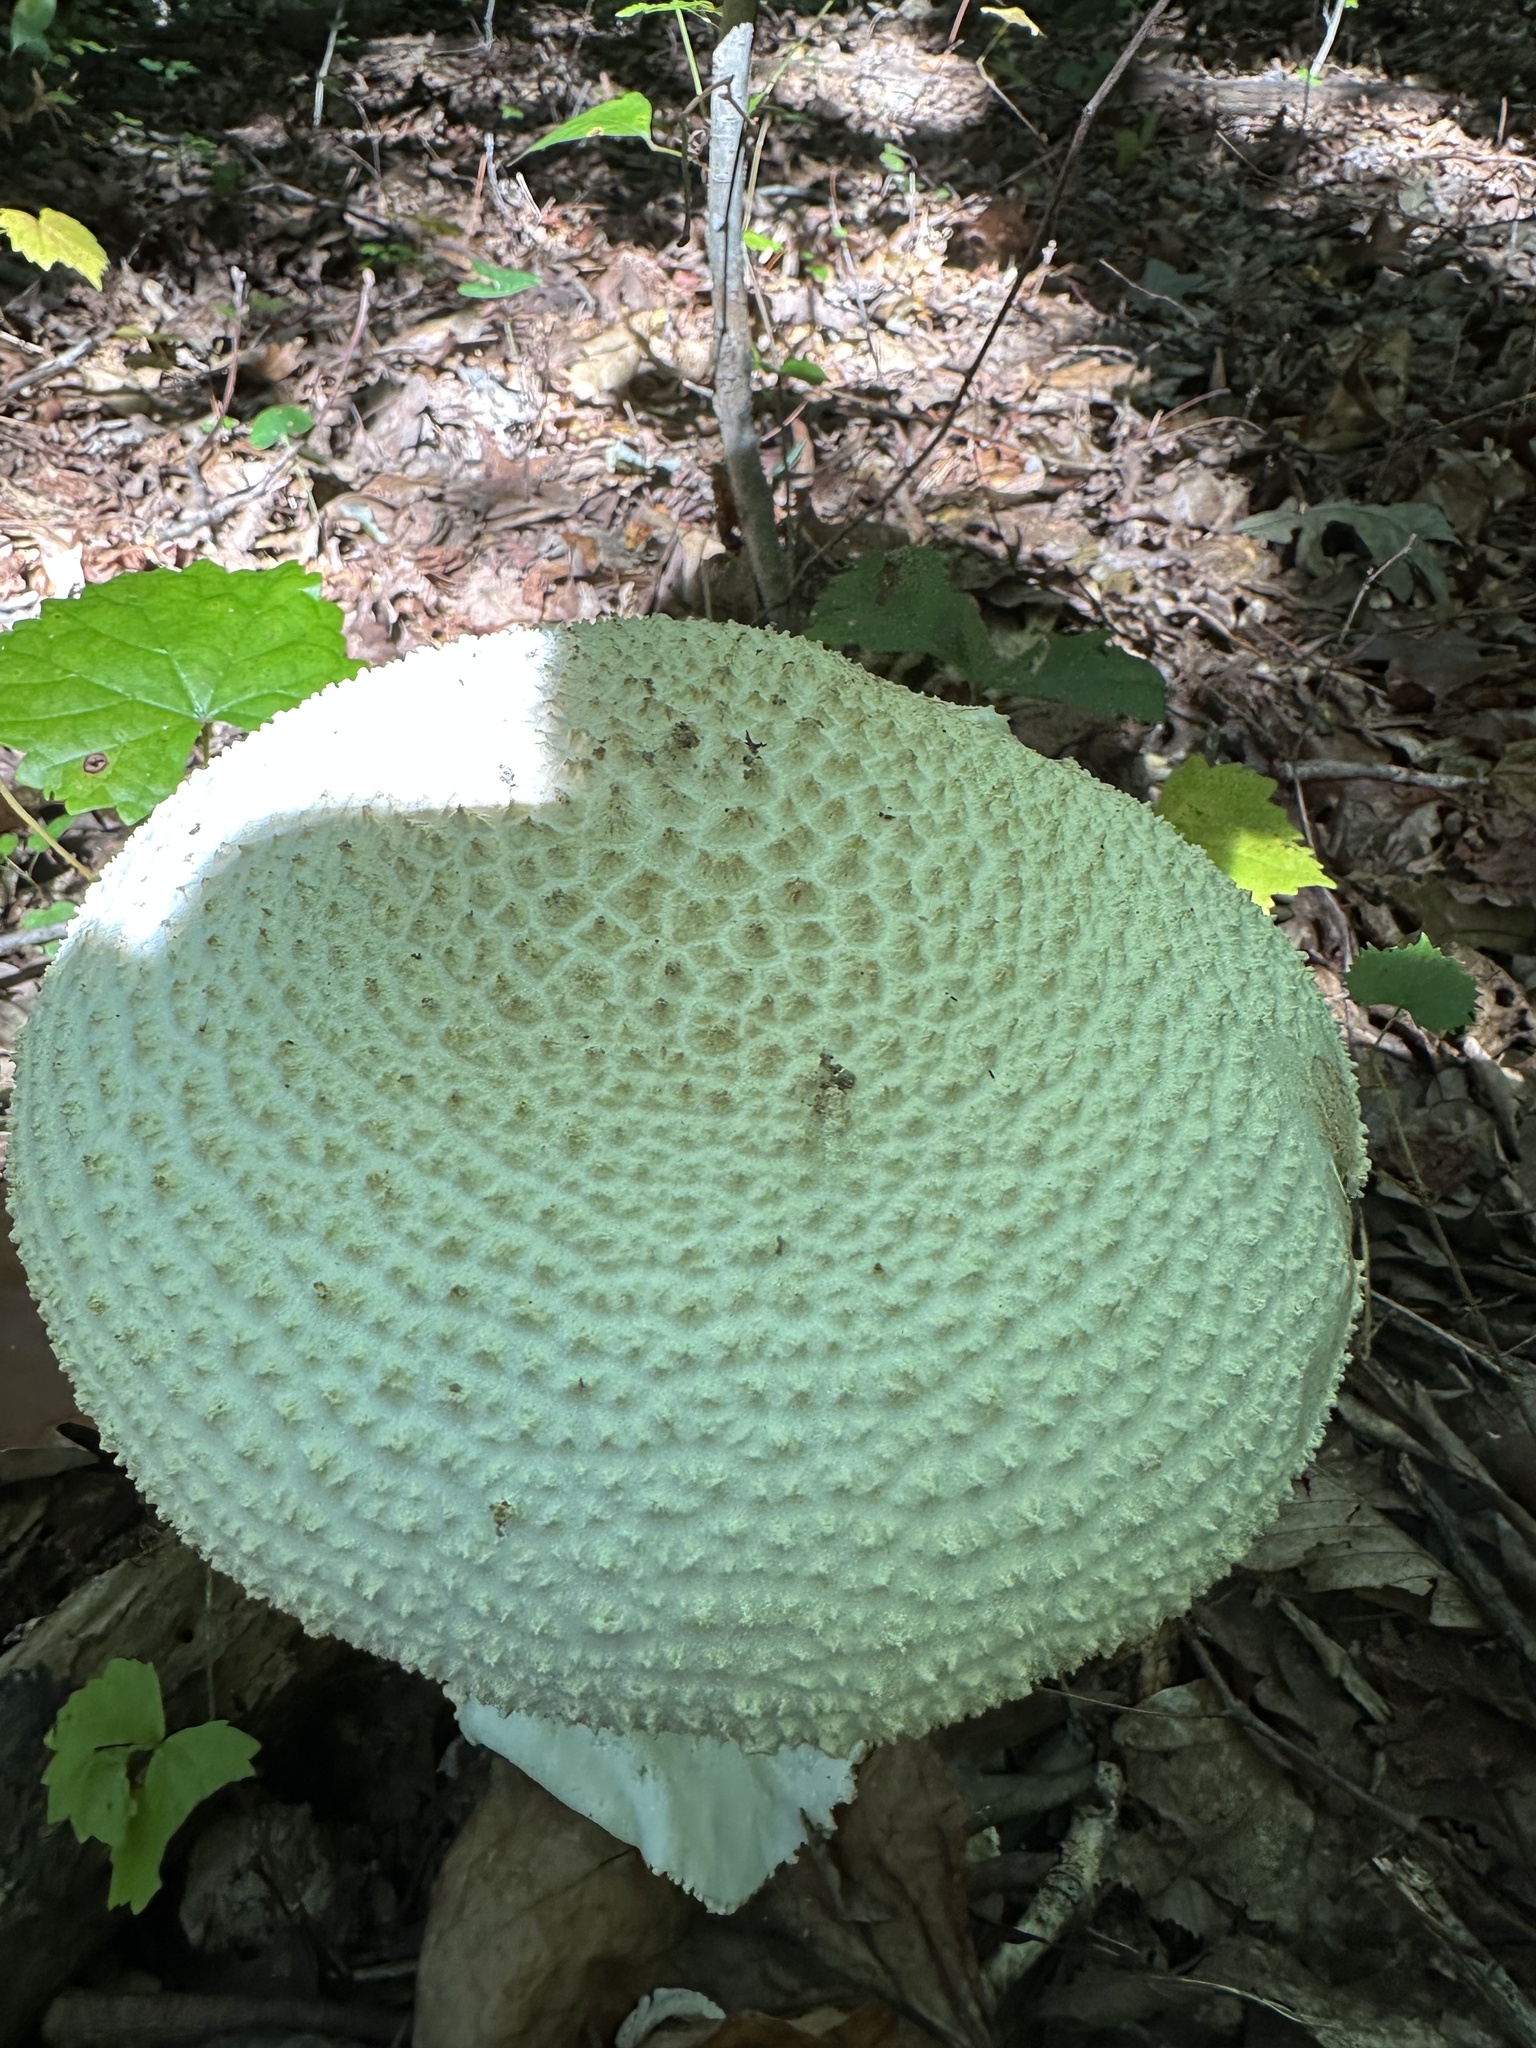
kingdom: Fungi
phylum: Basidiomycota
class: Agaricomycetes
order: Agaricales
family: Amanitaceae
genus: Amanita
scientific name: Amanita daucipes
